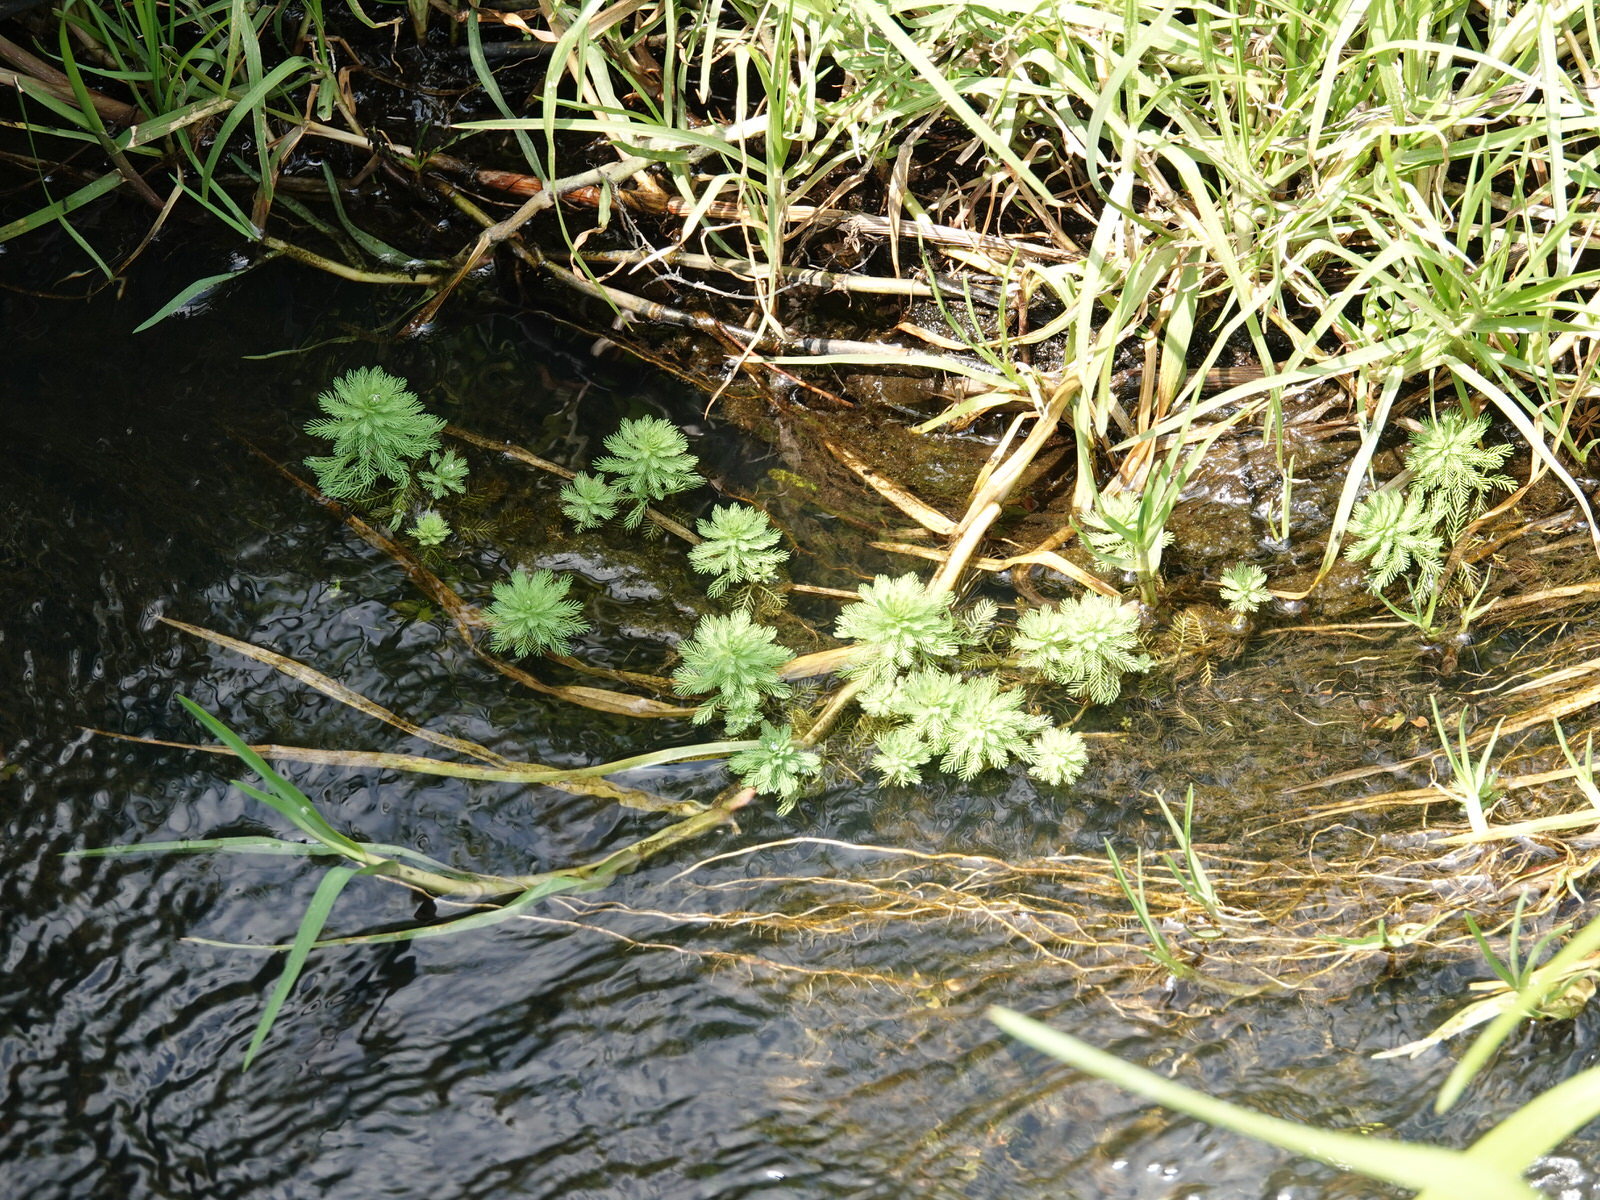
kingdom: Plantae
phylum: Tracheophyta
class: Magnoliopsida
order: Saxifragales
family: Haloragaceae
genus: Myriophyllum
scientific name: Myriophyllum aquaticum
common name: Parrot's feather
